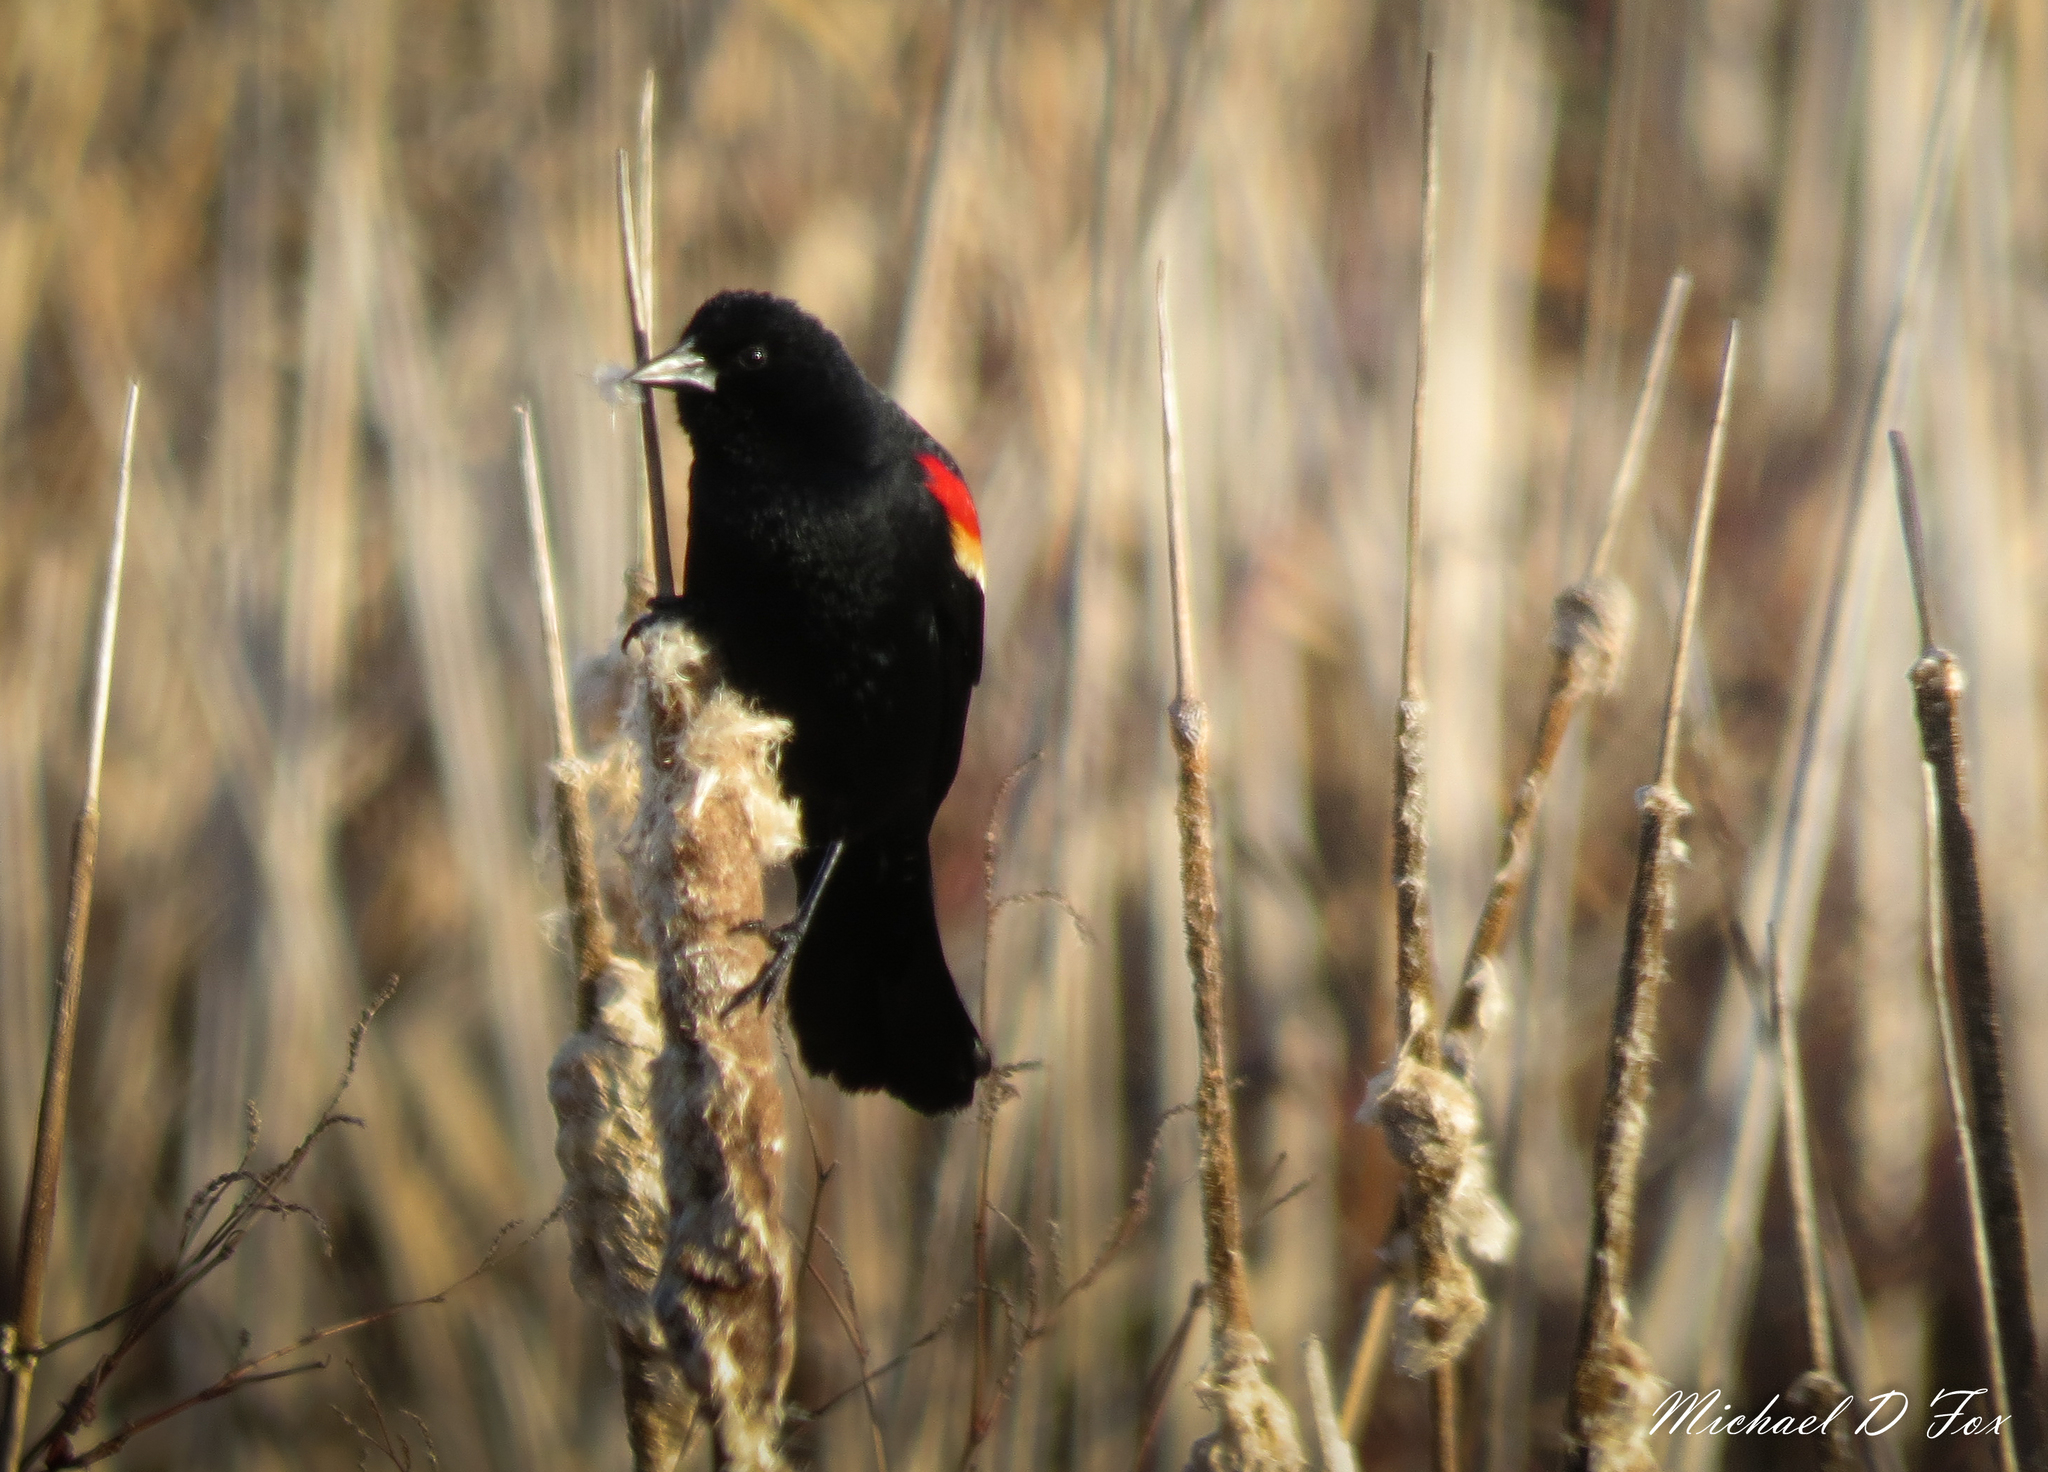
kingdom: Animalia
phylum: Chordata
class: Aves
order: Passeriformes
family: Icteridae
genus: Agelaius
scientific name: Agelaius phoeniceus
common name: Red-winged blackbird
